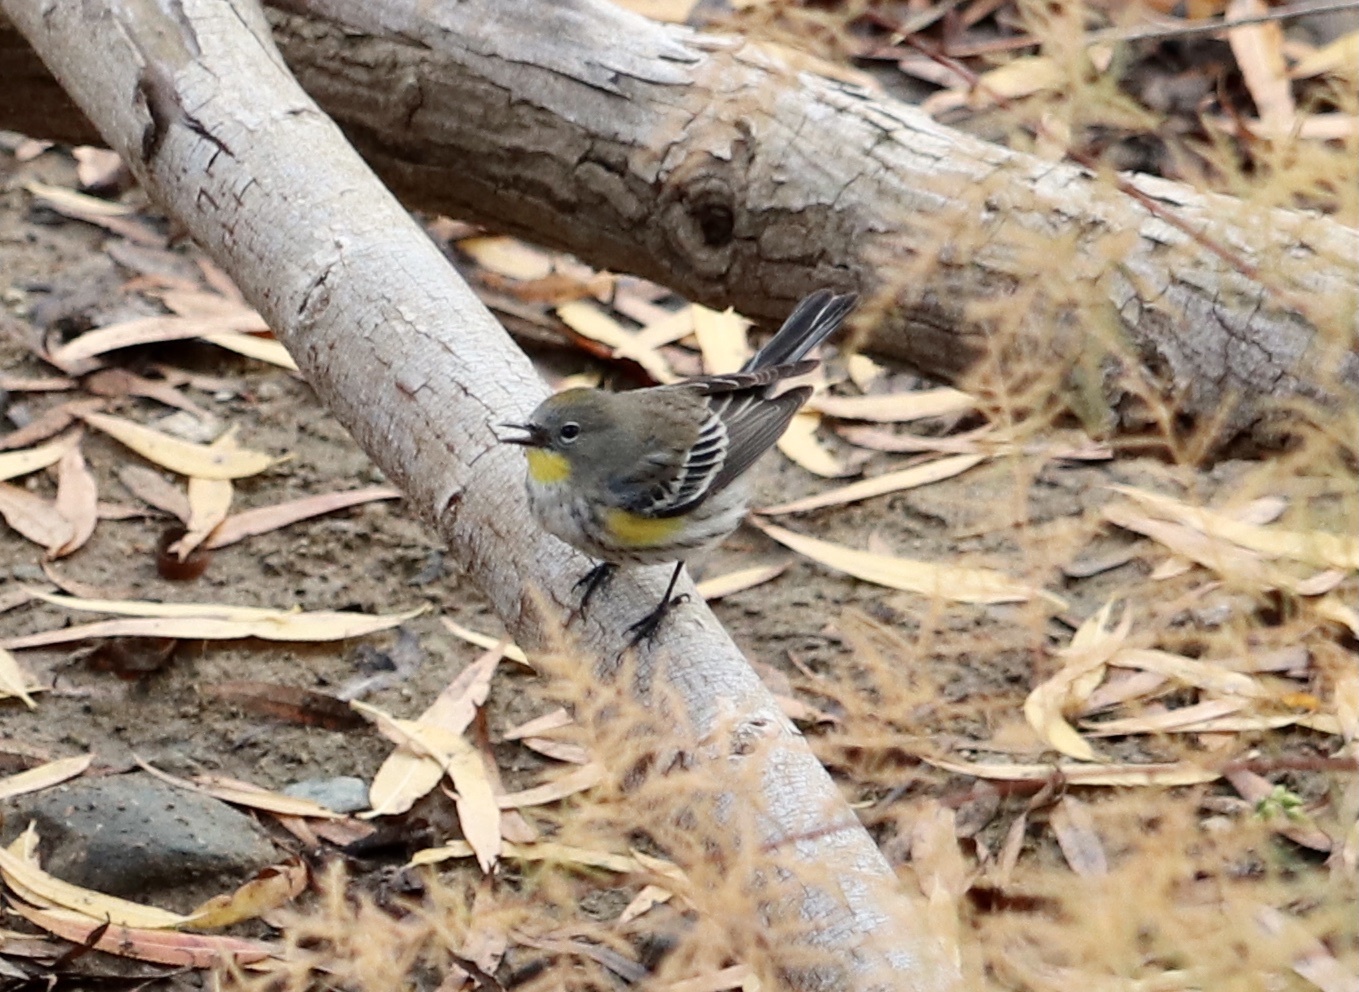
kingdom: Animalia
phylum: Chordata
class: Aves
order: Passeriformes
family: Parulidae
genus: Setophaga
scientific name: Setophaga coronata
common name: Myrtle warbler
